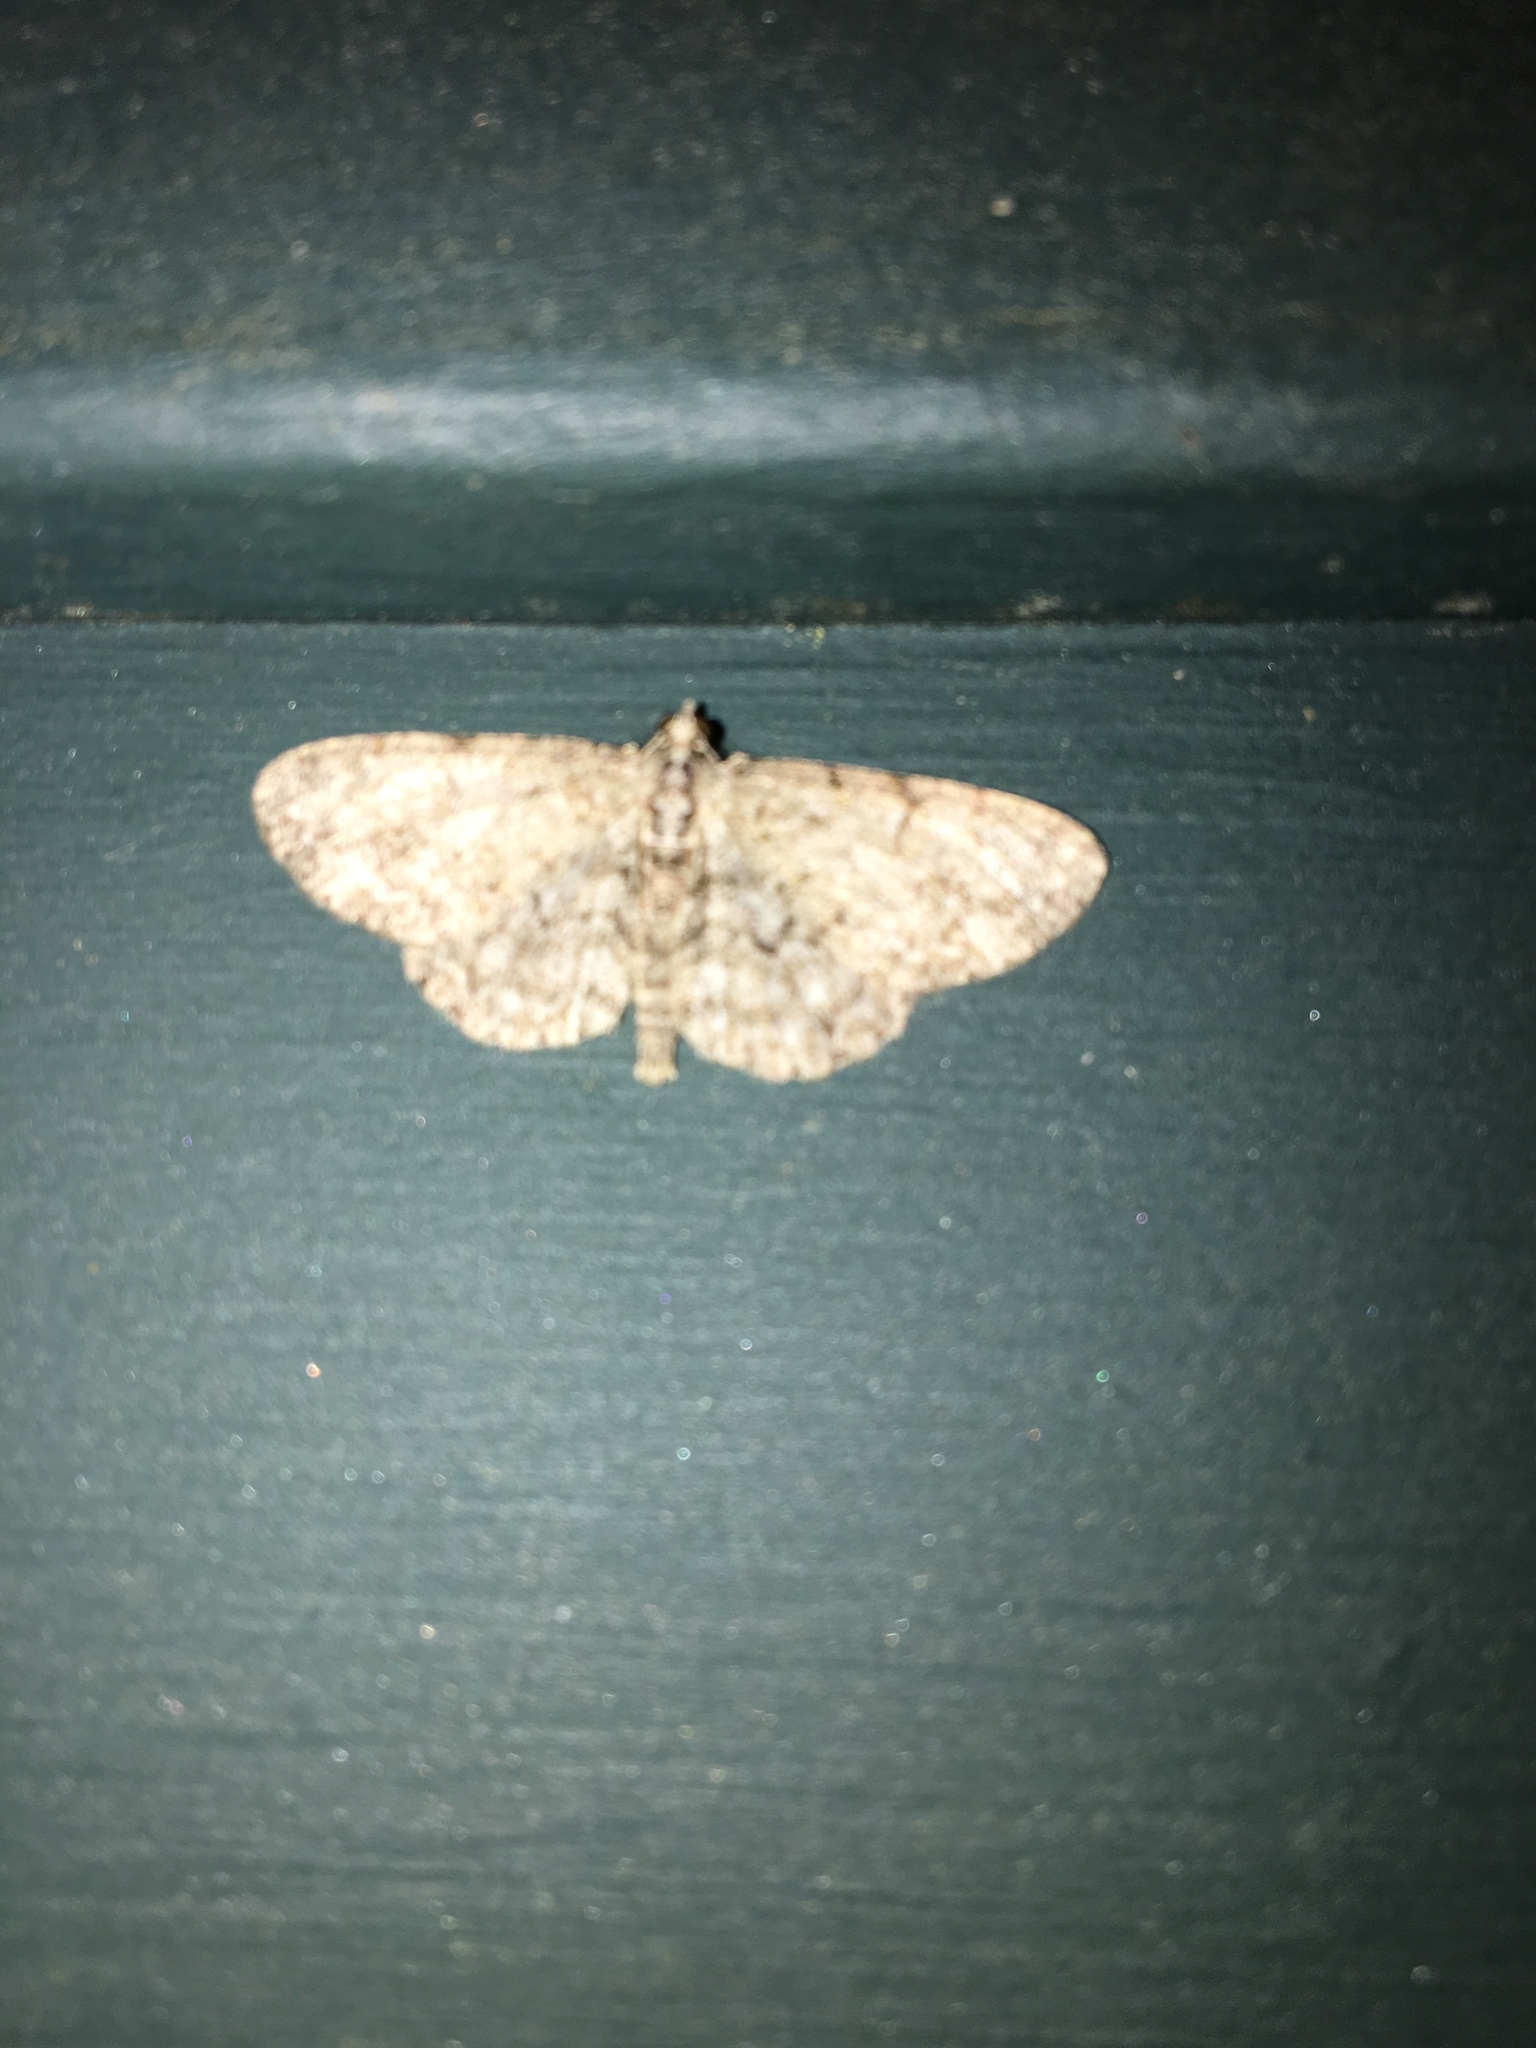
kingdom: Animalia
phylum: Arthropoda
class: Insecta
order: Lepidoptera
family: Geometridae
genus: Protoboarmia
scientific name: Protoboarmia porcelaria
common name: Porcelain gray
